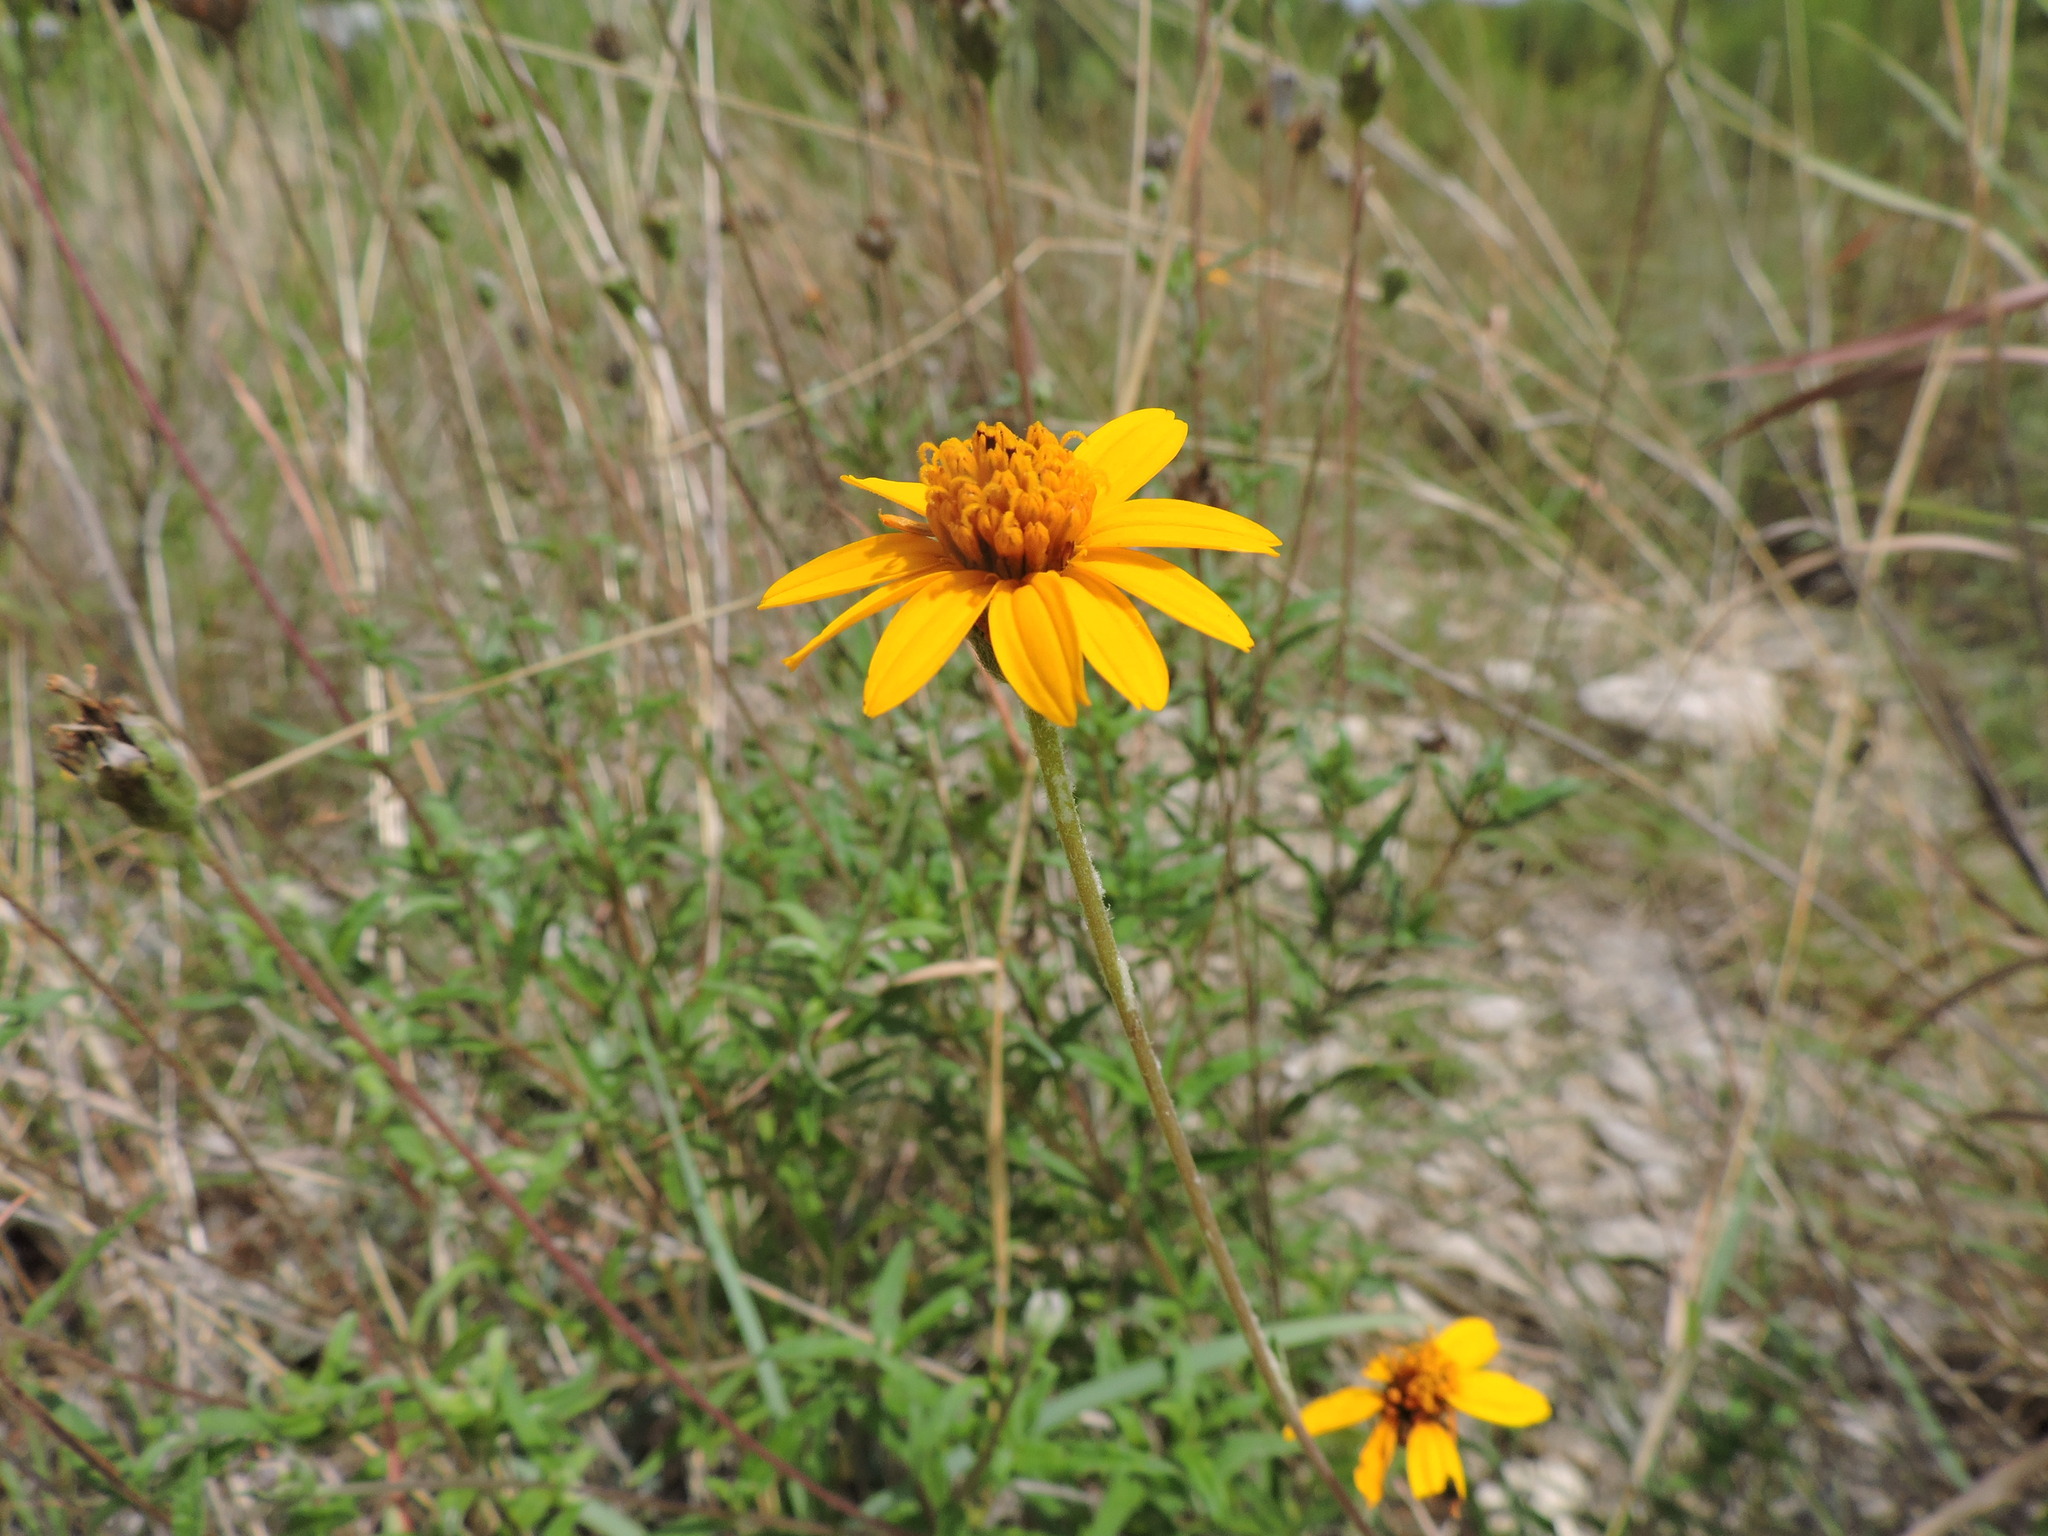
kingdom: Plantae
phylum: Tracheophyta
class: Magnoliopsida
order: Asterales
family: Asteraceae
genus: Wedelia
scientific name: Wedelia acapulcensis
